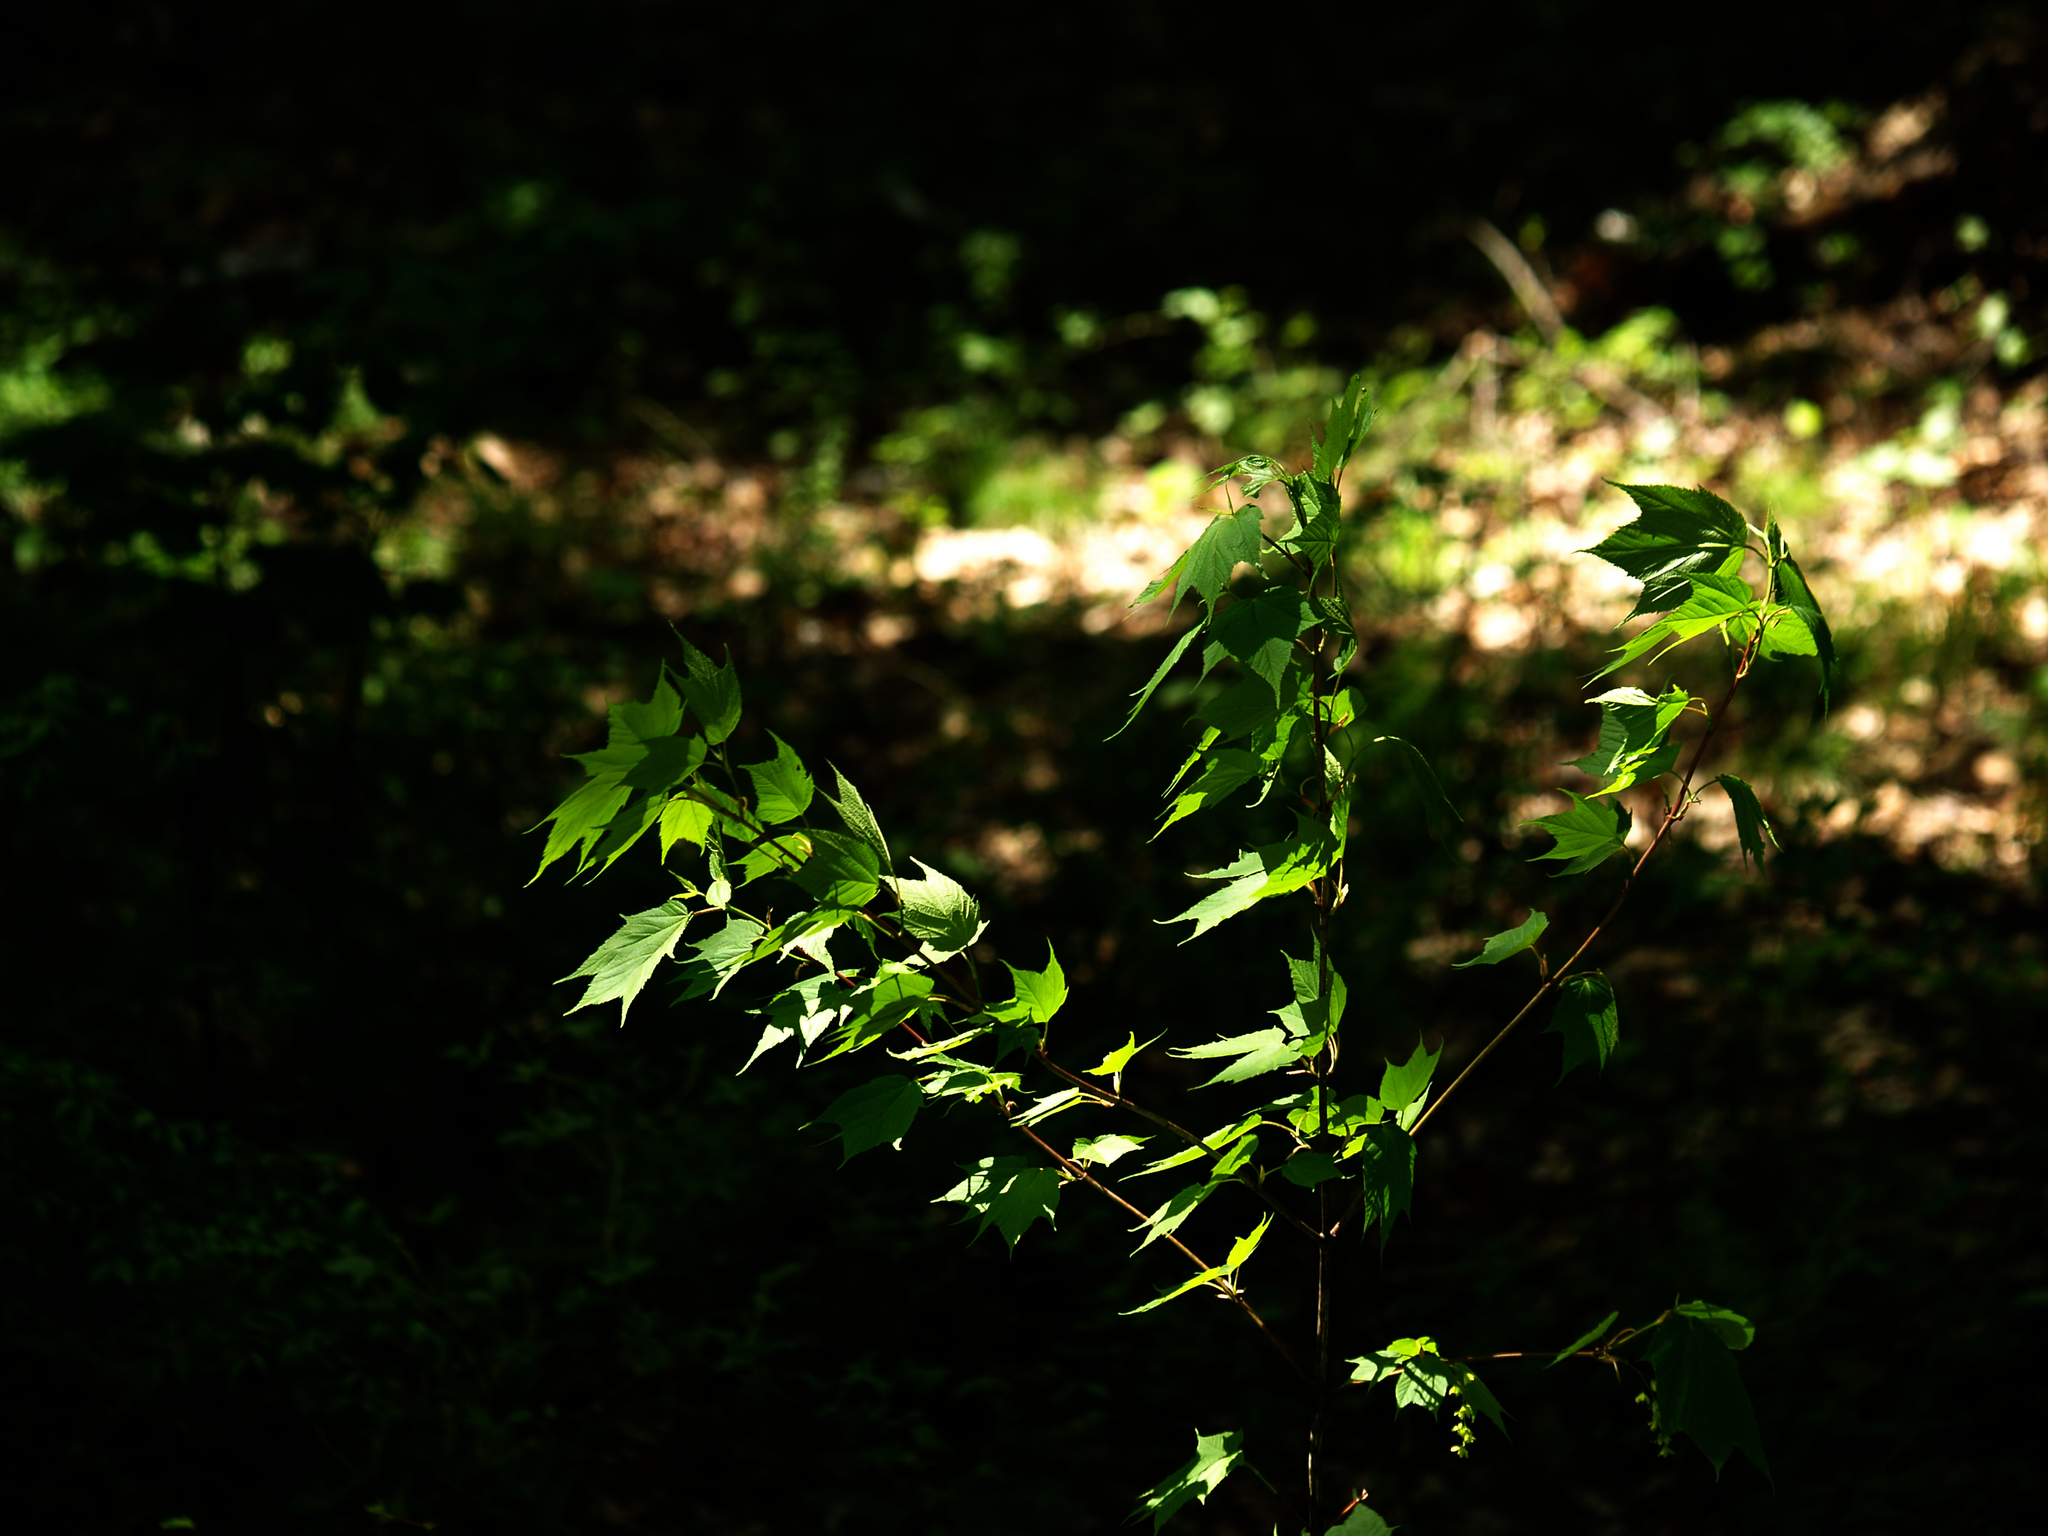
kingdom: Plantae
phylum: Tracheophyta
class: Magnoliopsida
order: Sapindales
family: Sapindaceae
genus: Acer
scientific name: Acer pensylvanicum
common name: Moosewood
